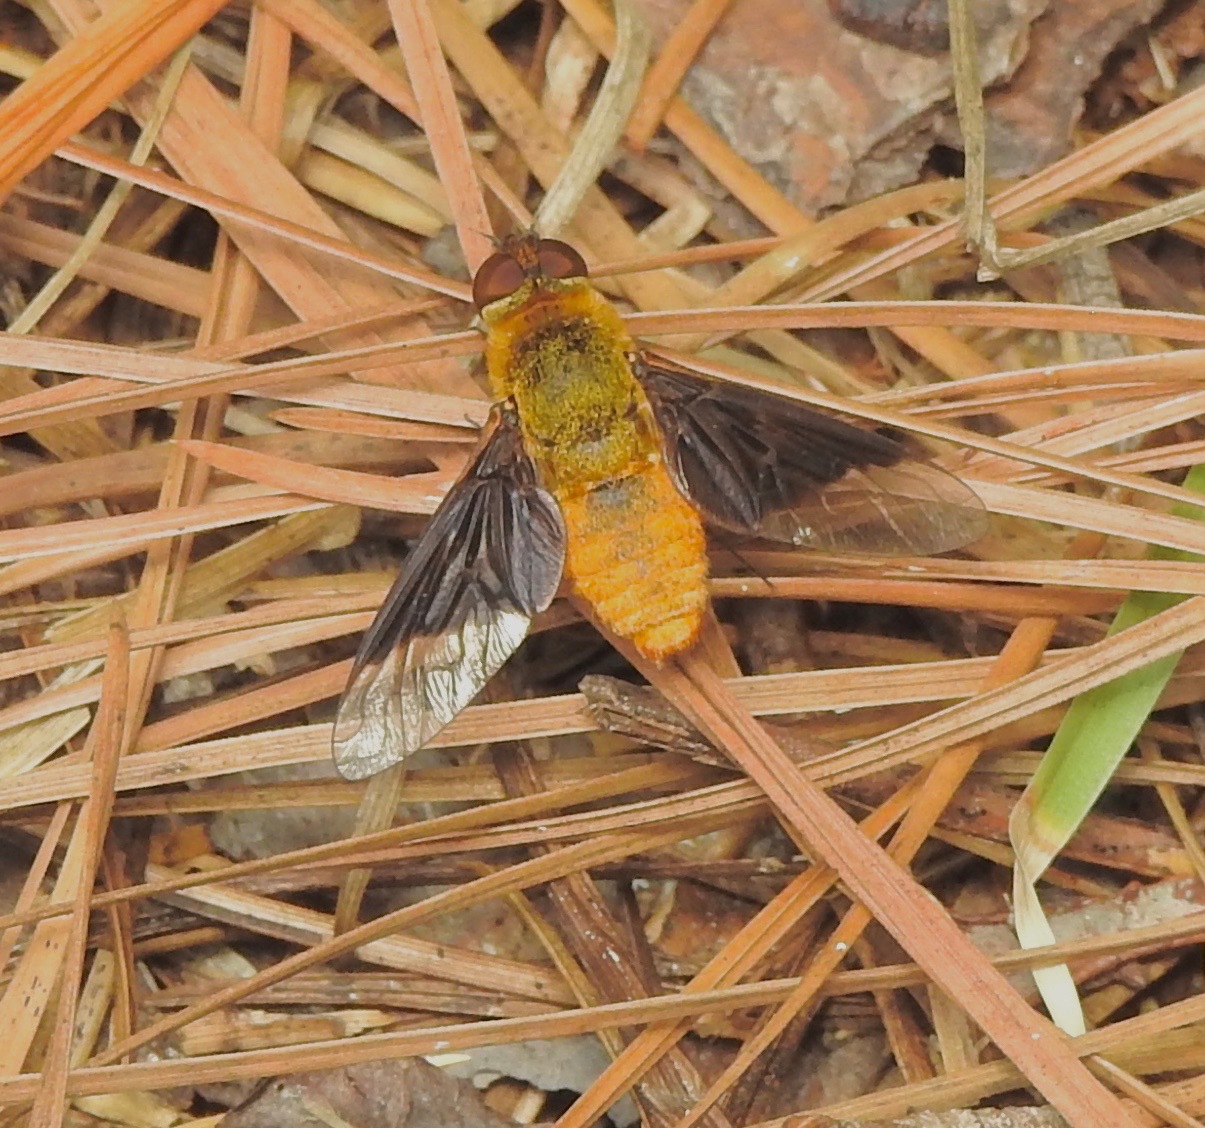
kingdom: Animalia
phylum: Arthropoda
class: Insecta
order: Diptera
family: Bombyliidae
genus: Chrysanthrax
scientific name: Chrysanthrax cypris
